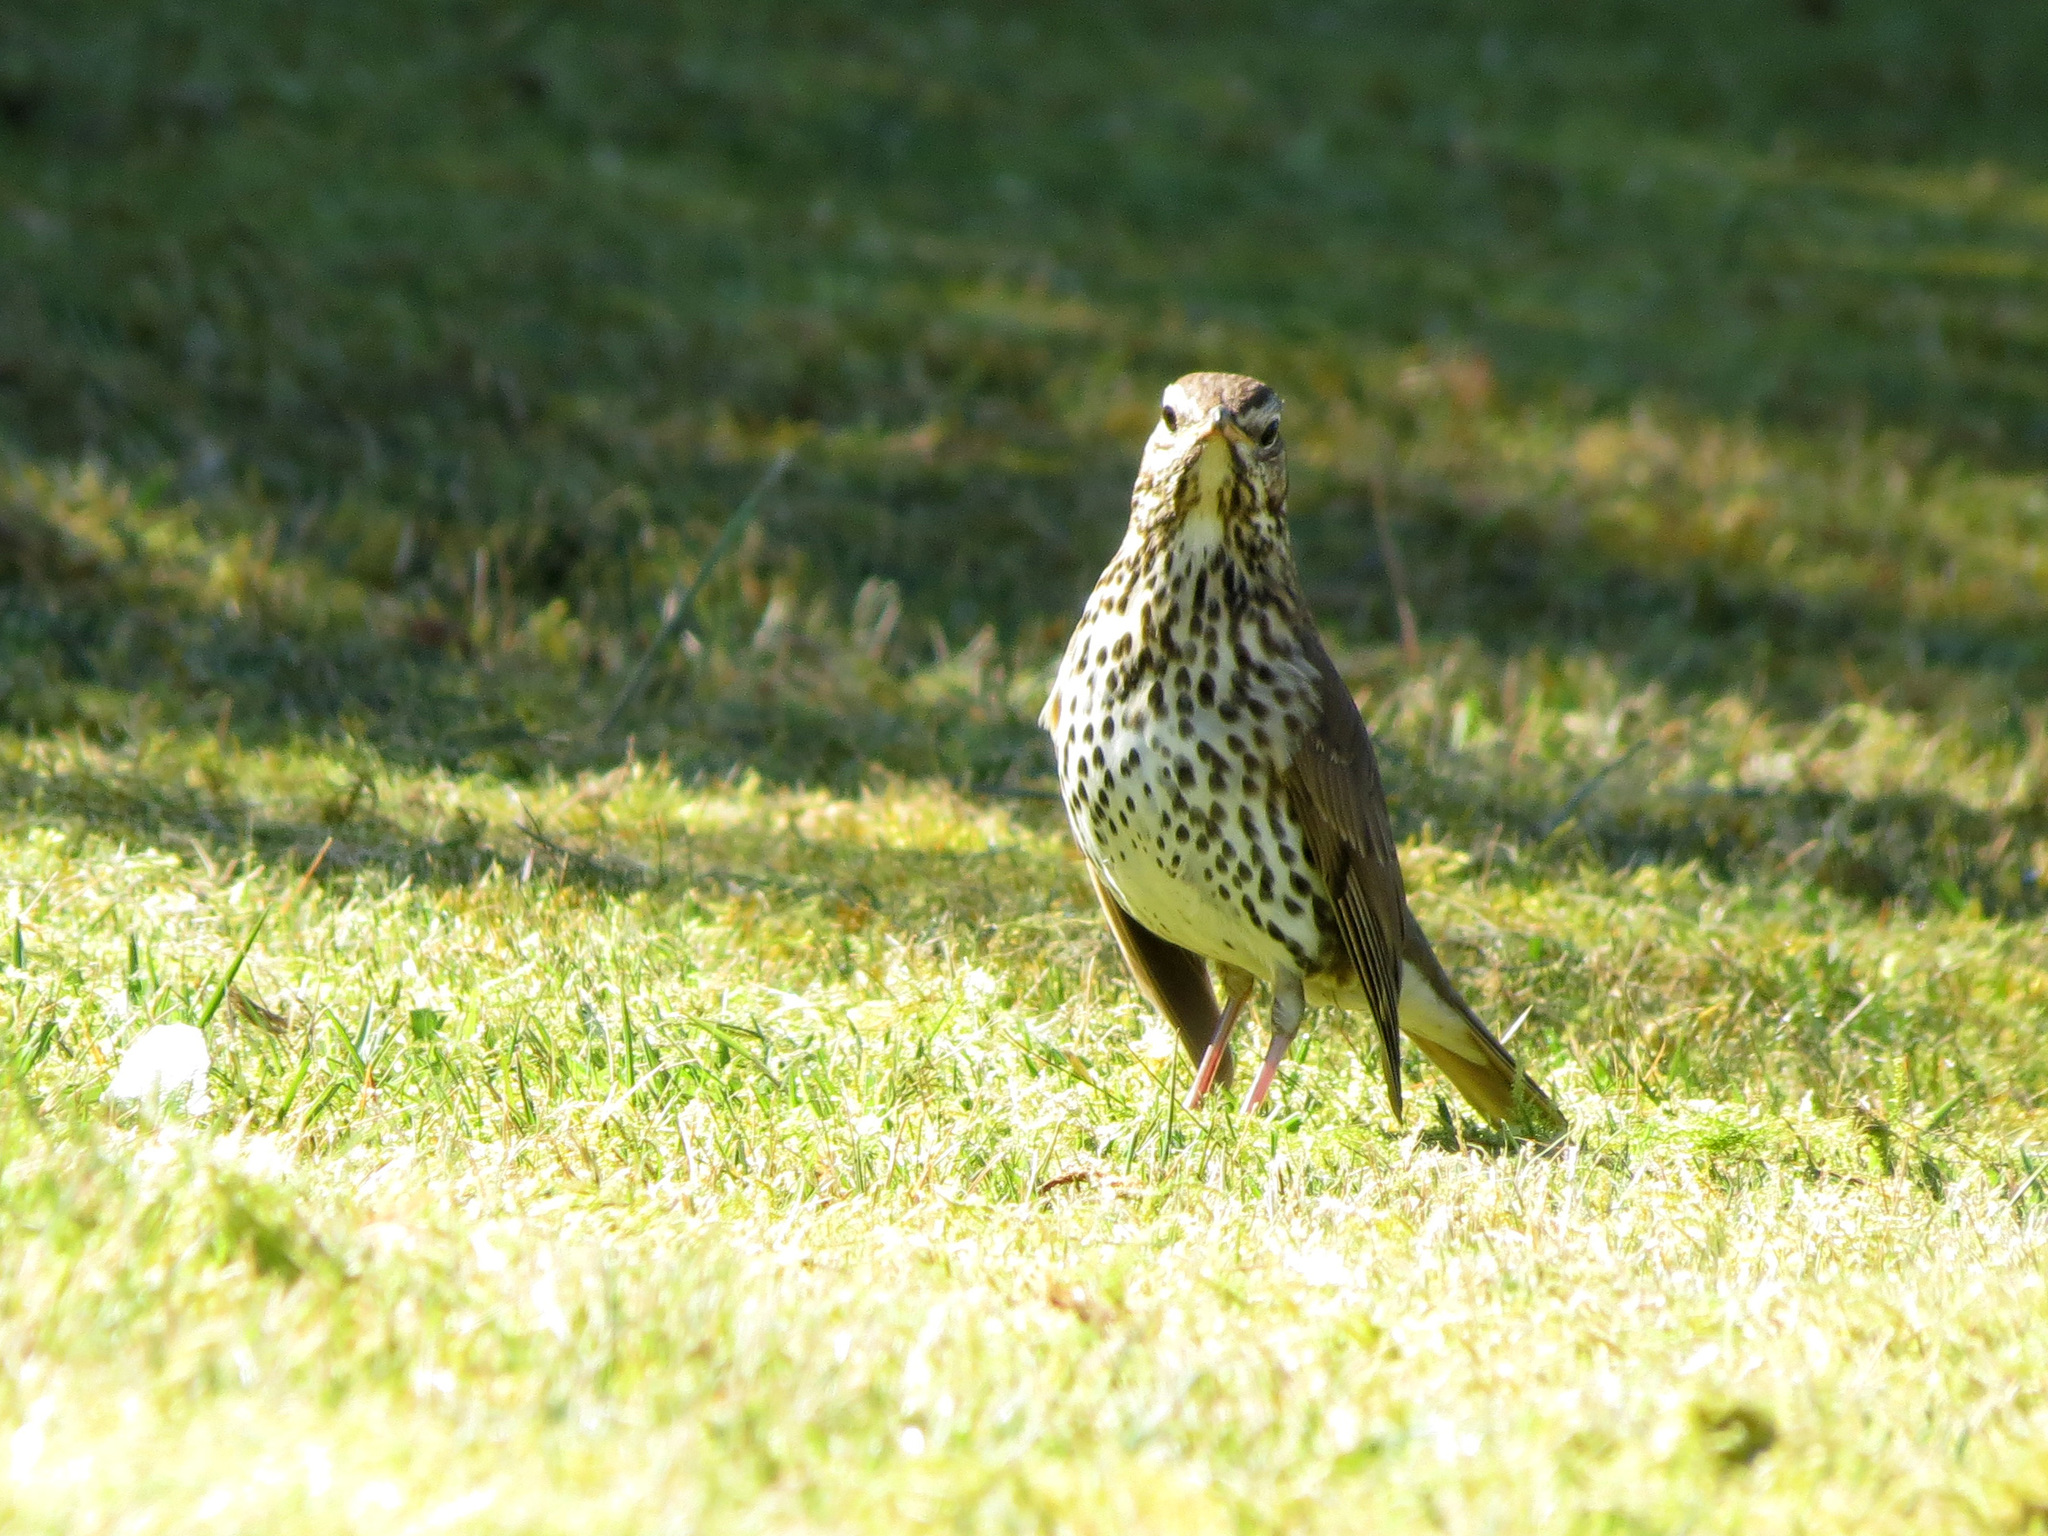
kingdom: Animalia
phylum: Chordata
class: Aves
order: Passeriformes
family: Turdidae
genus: Turdus
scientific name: Turdus philomelos
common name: Song thrush
